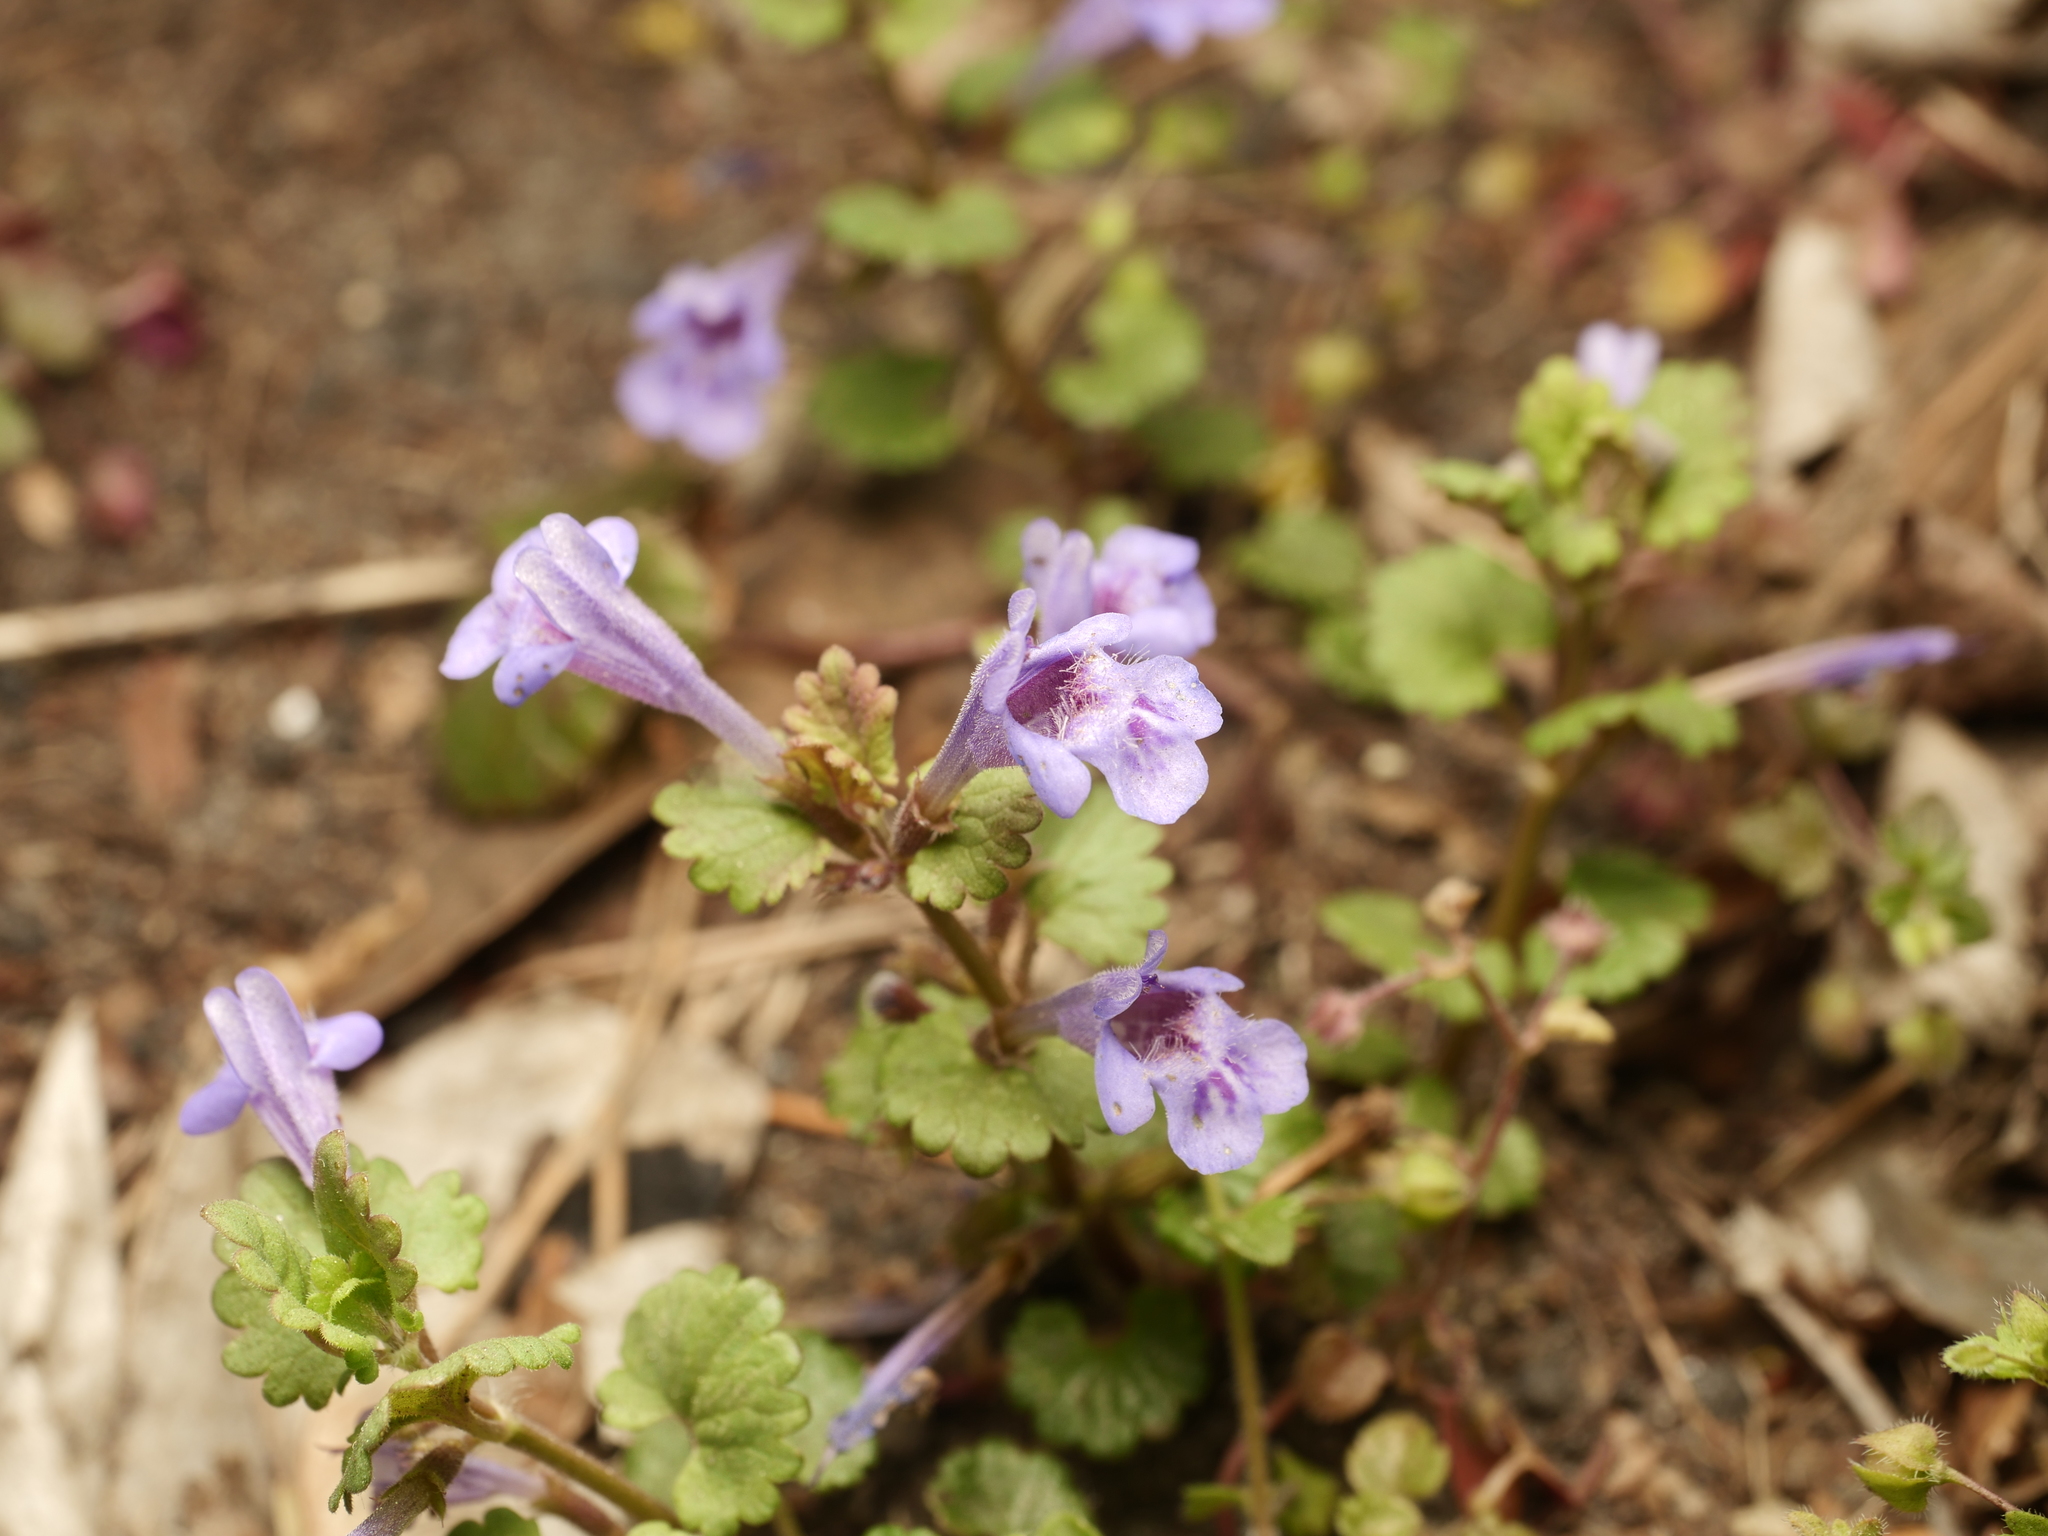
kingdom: Plantae
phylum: Tracheophyta
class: Magnoliopsida
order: Lamiales
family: Lamiaceae
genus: Glechoma
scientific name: Glechoma hederacea
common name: Ground ivy
